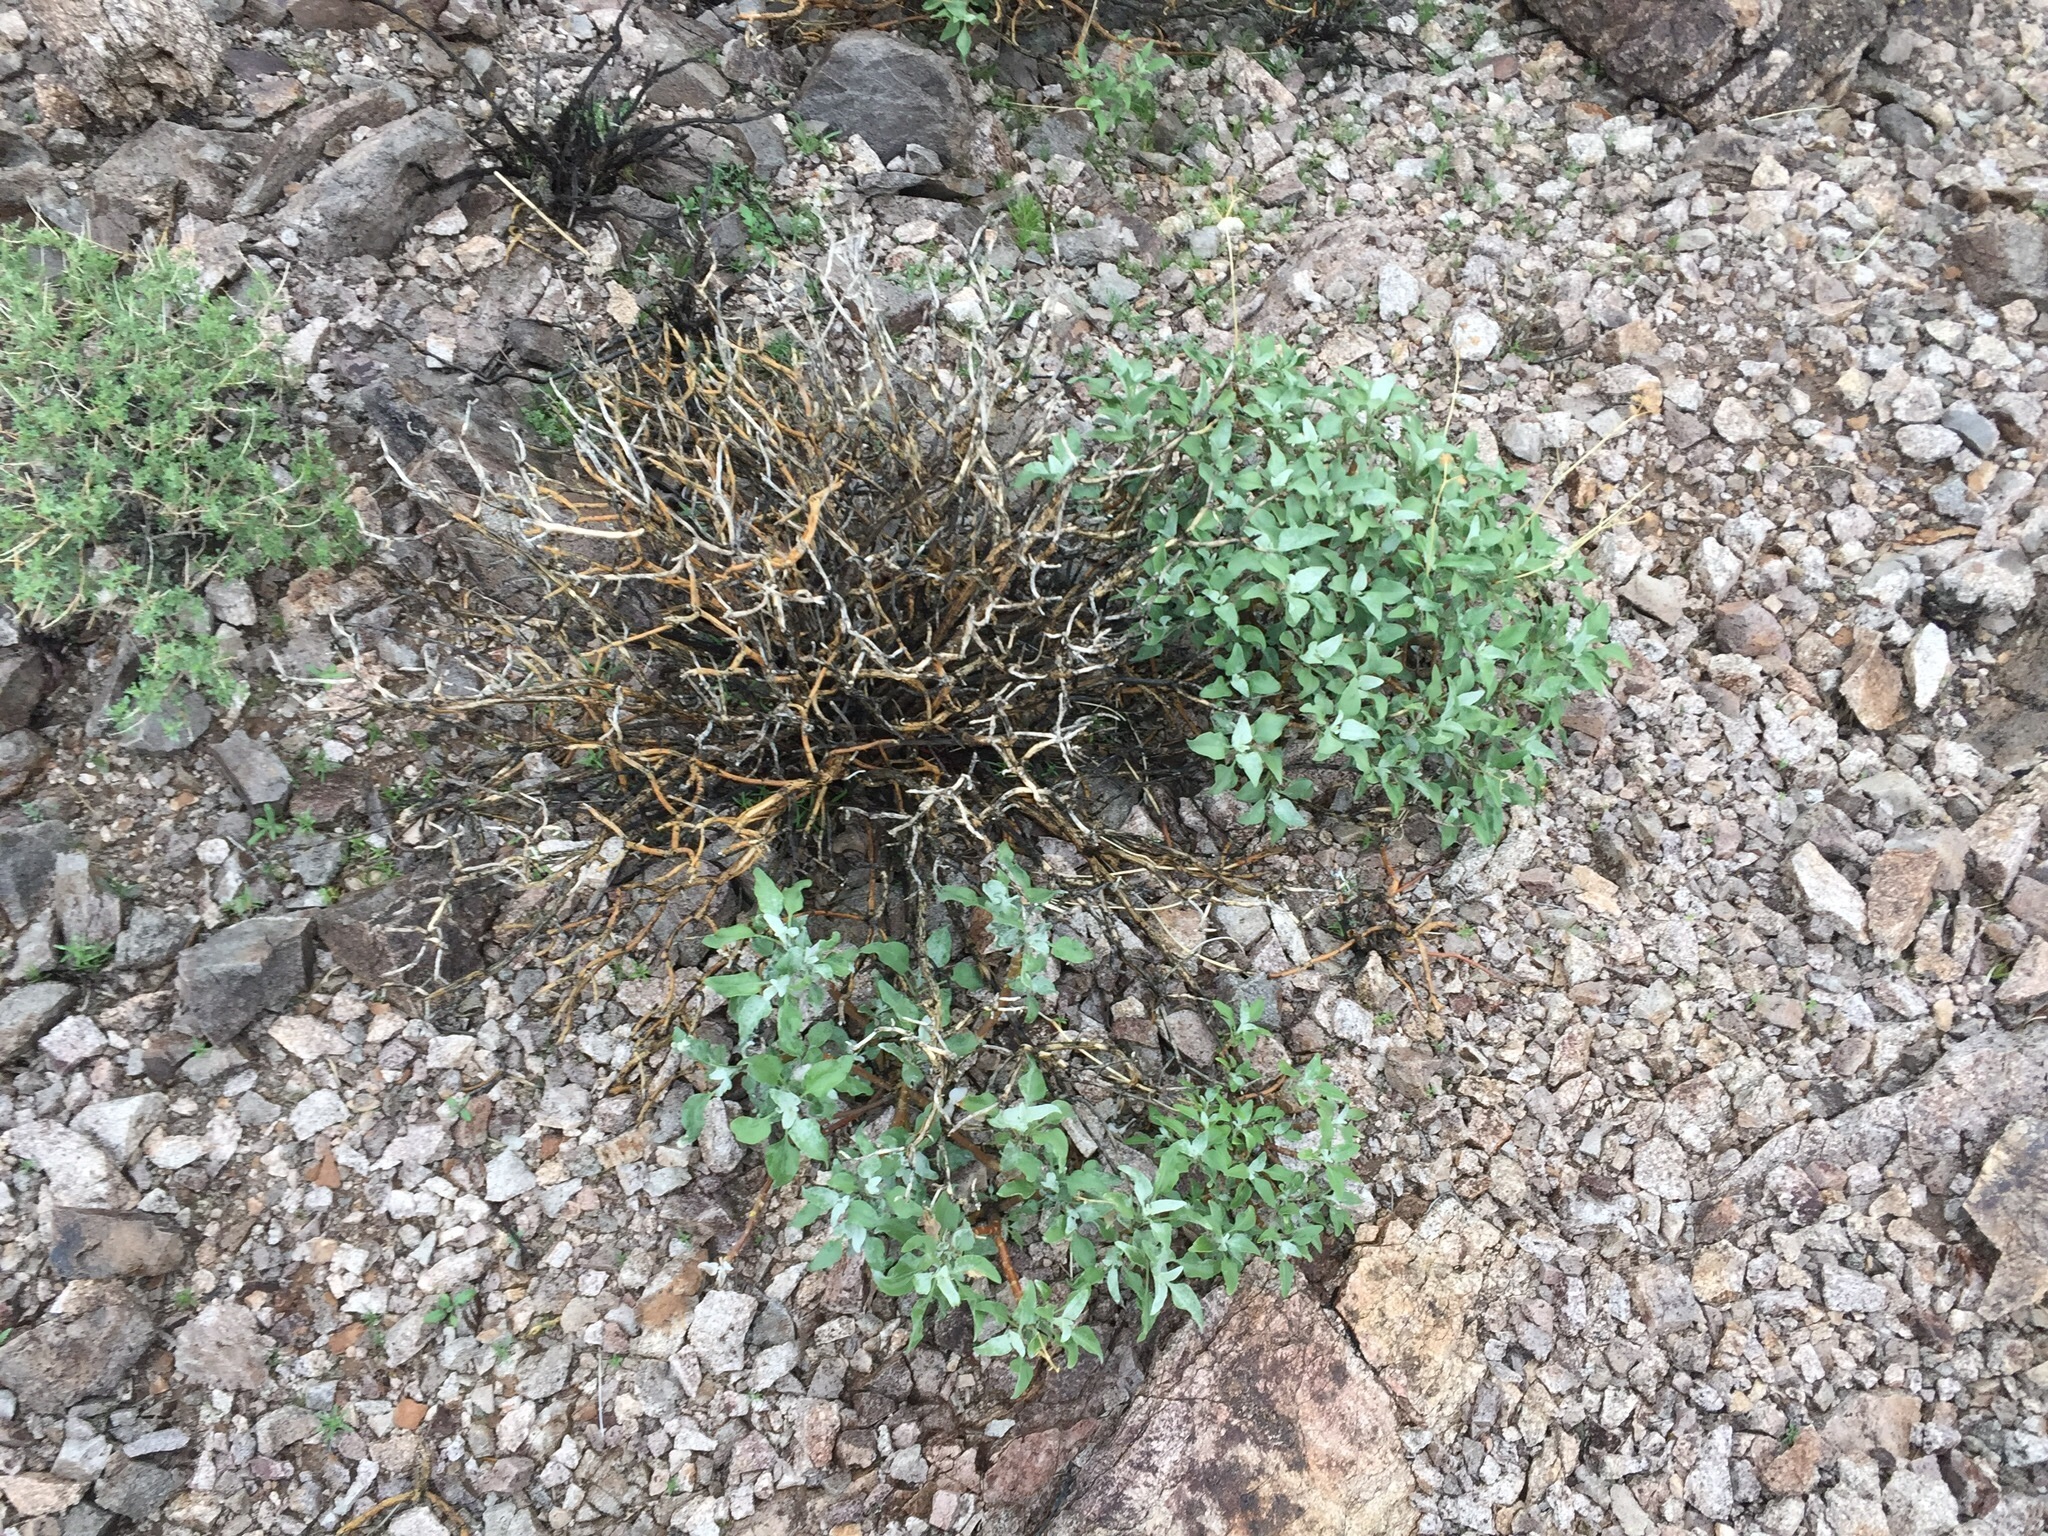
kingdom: Plantae
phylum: Tracheophyta
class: Magnoliopsida
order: Asterales
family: Asteraceae
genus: Encelia
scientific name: Encelia farinosa
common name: Brittlebush
